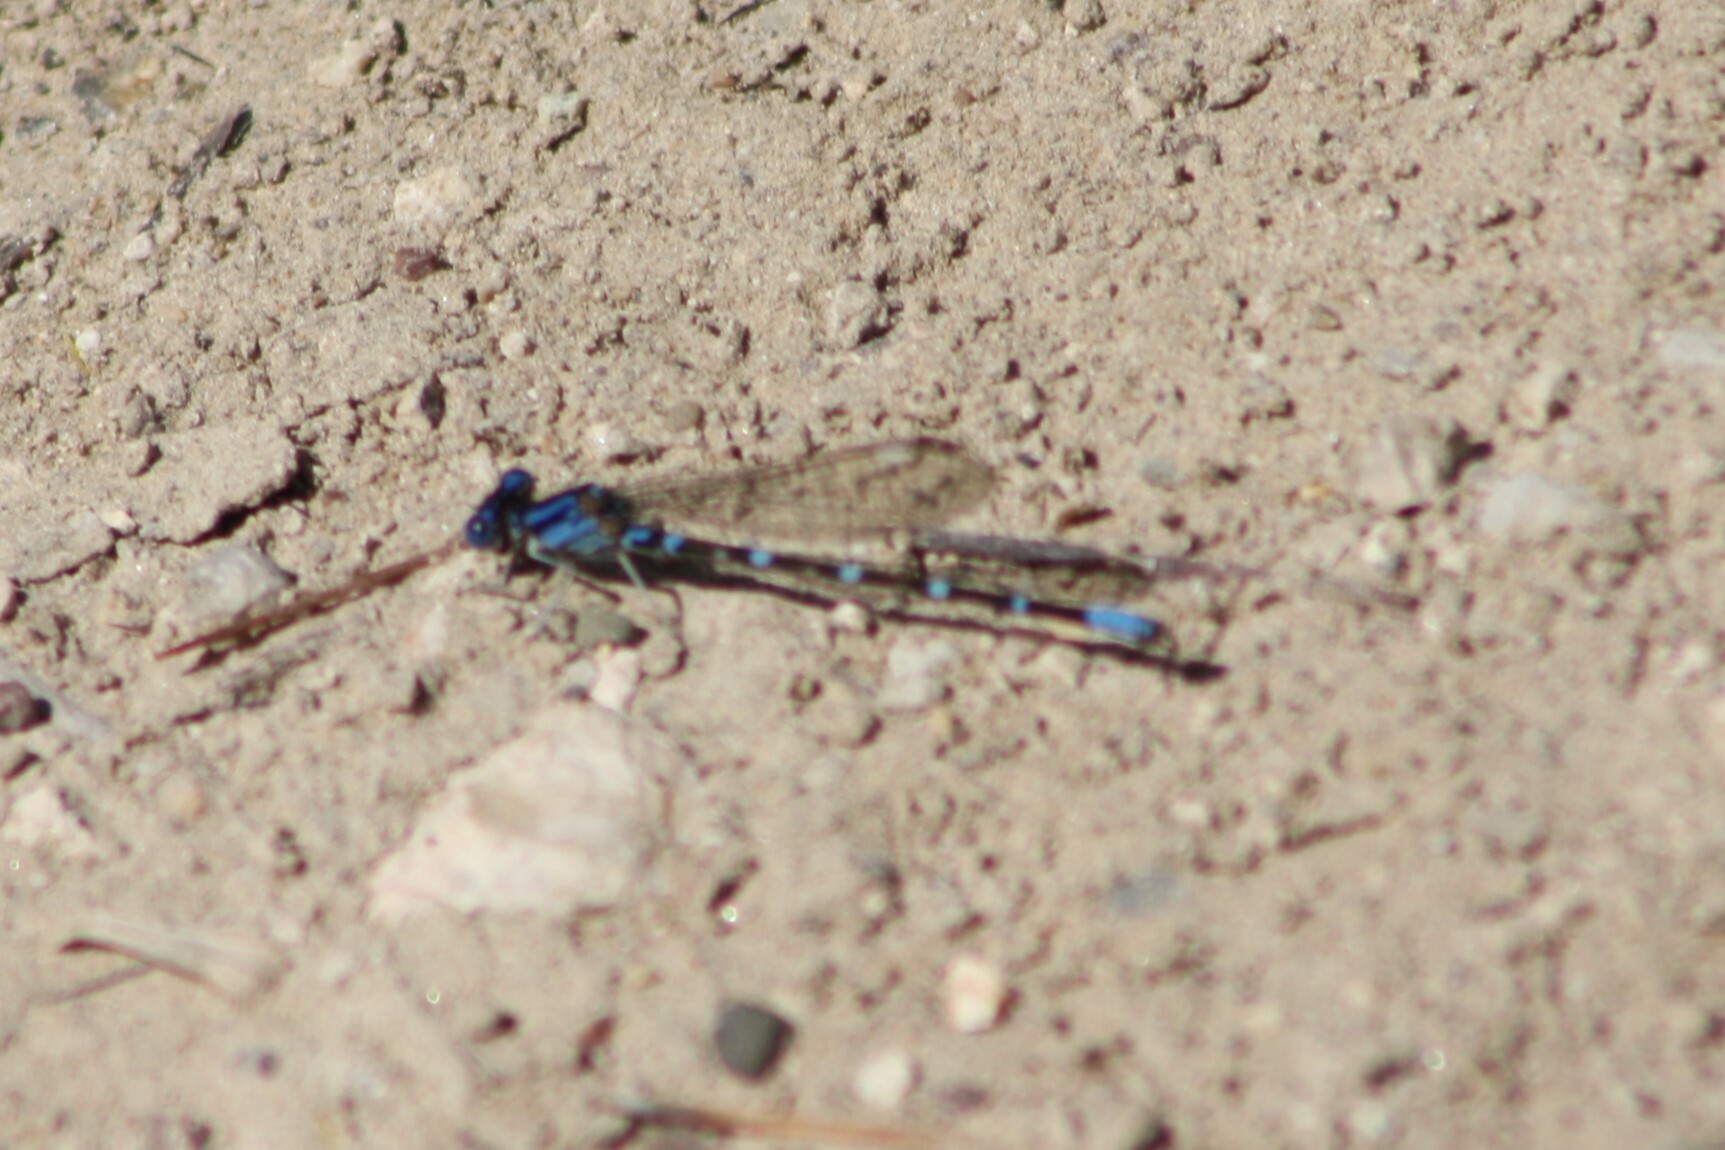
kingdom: Animalia
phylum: Arthropoda
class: Insecta
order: Odonata
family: Coenagrionidae
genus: Argia
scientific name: Argia sedula
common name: Blue-ringed dancer
